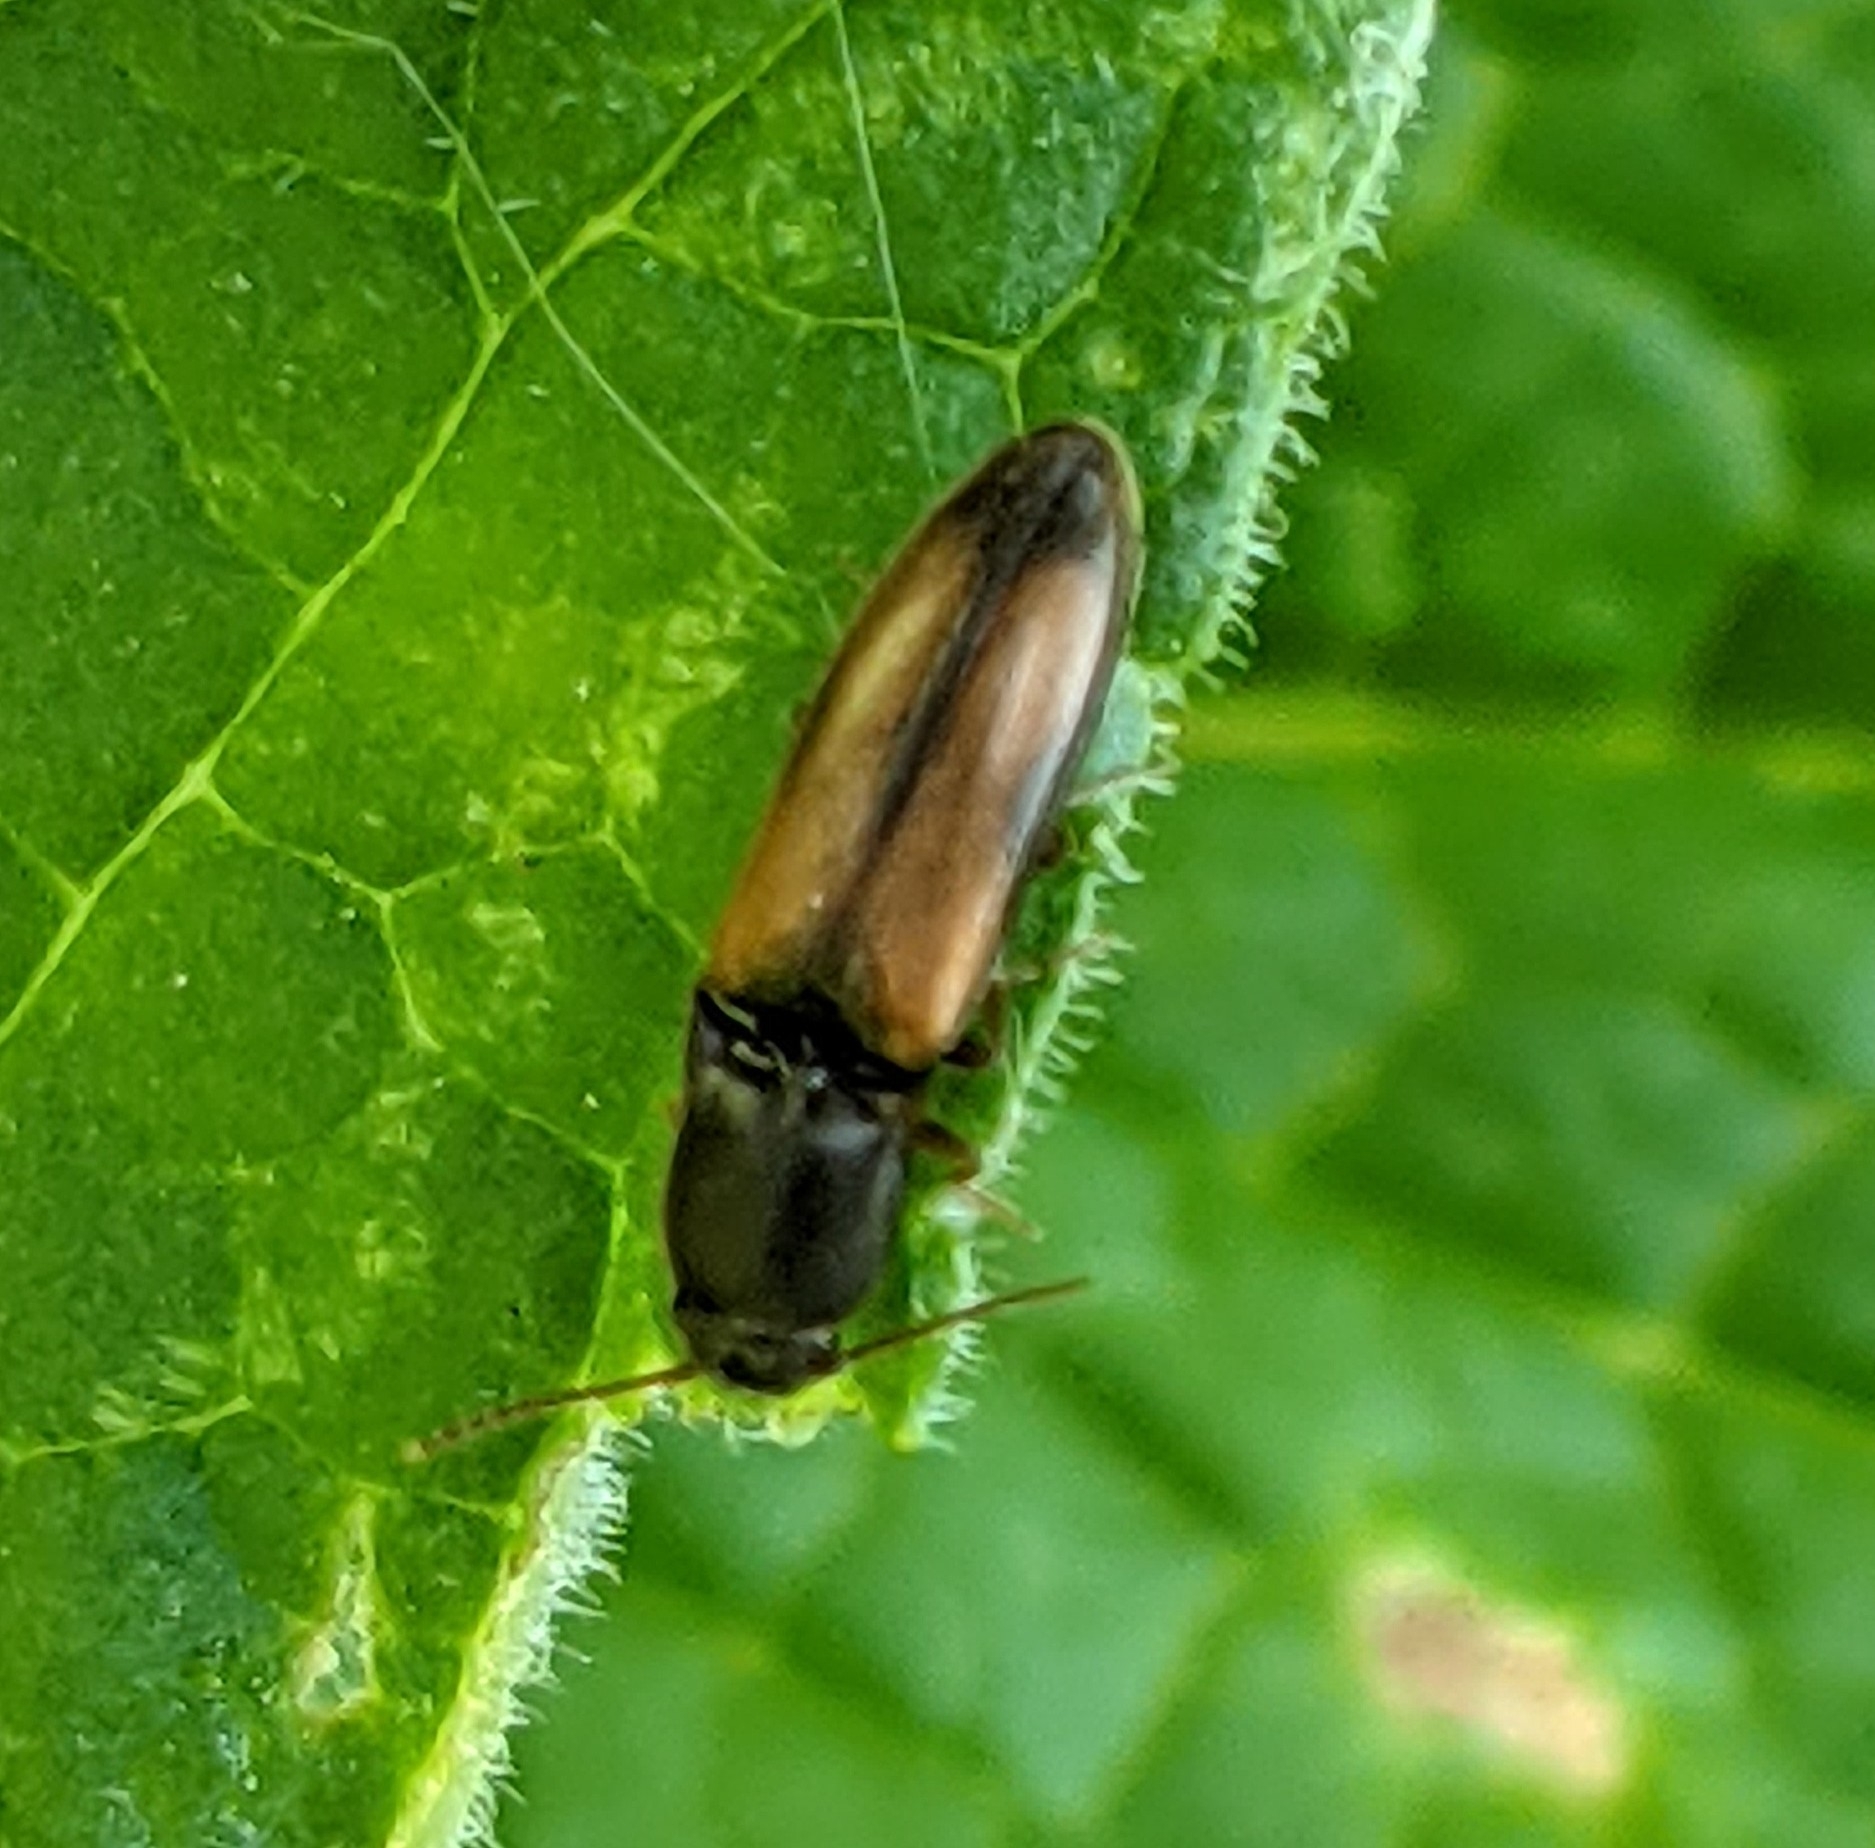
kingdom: Animalia
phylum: Arthropoda
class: Insecta
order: Coleoptera
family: Elateridae
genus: Idolus
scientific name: Idolus occidentalis
